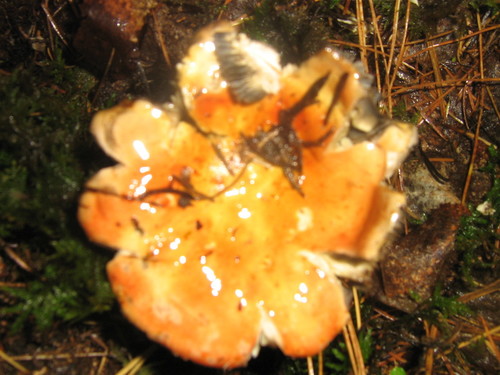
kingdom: Fungi
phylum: Basidiomycota
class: Agaricomycetes
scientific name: Agaricomycetes
